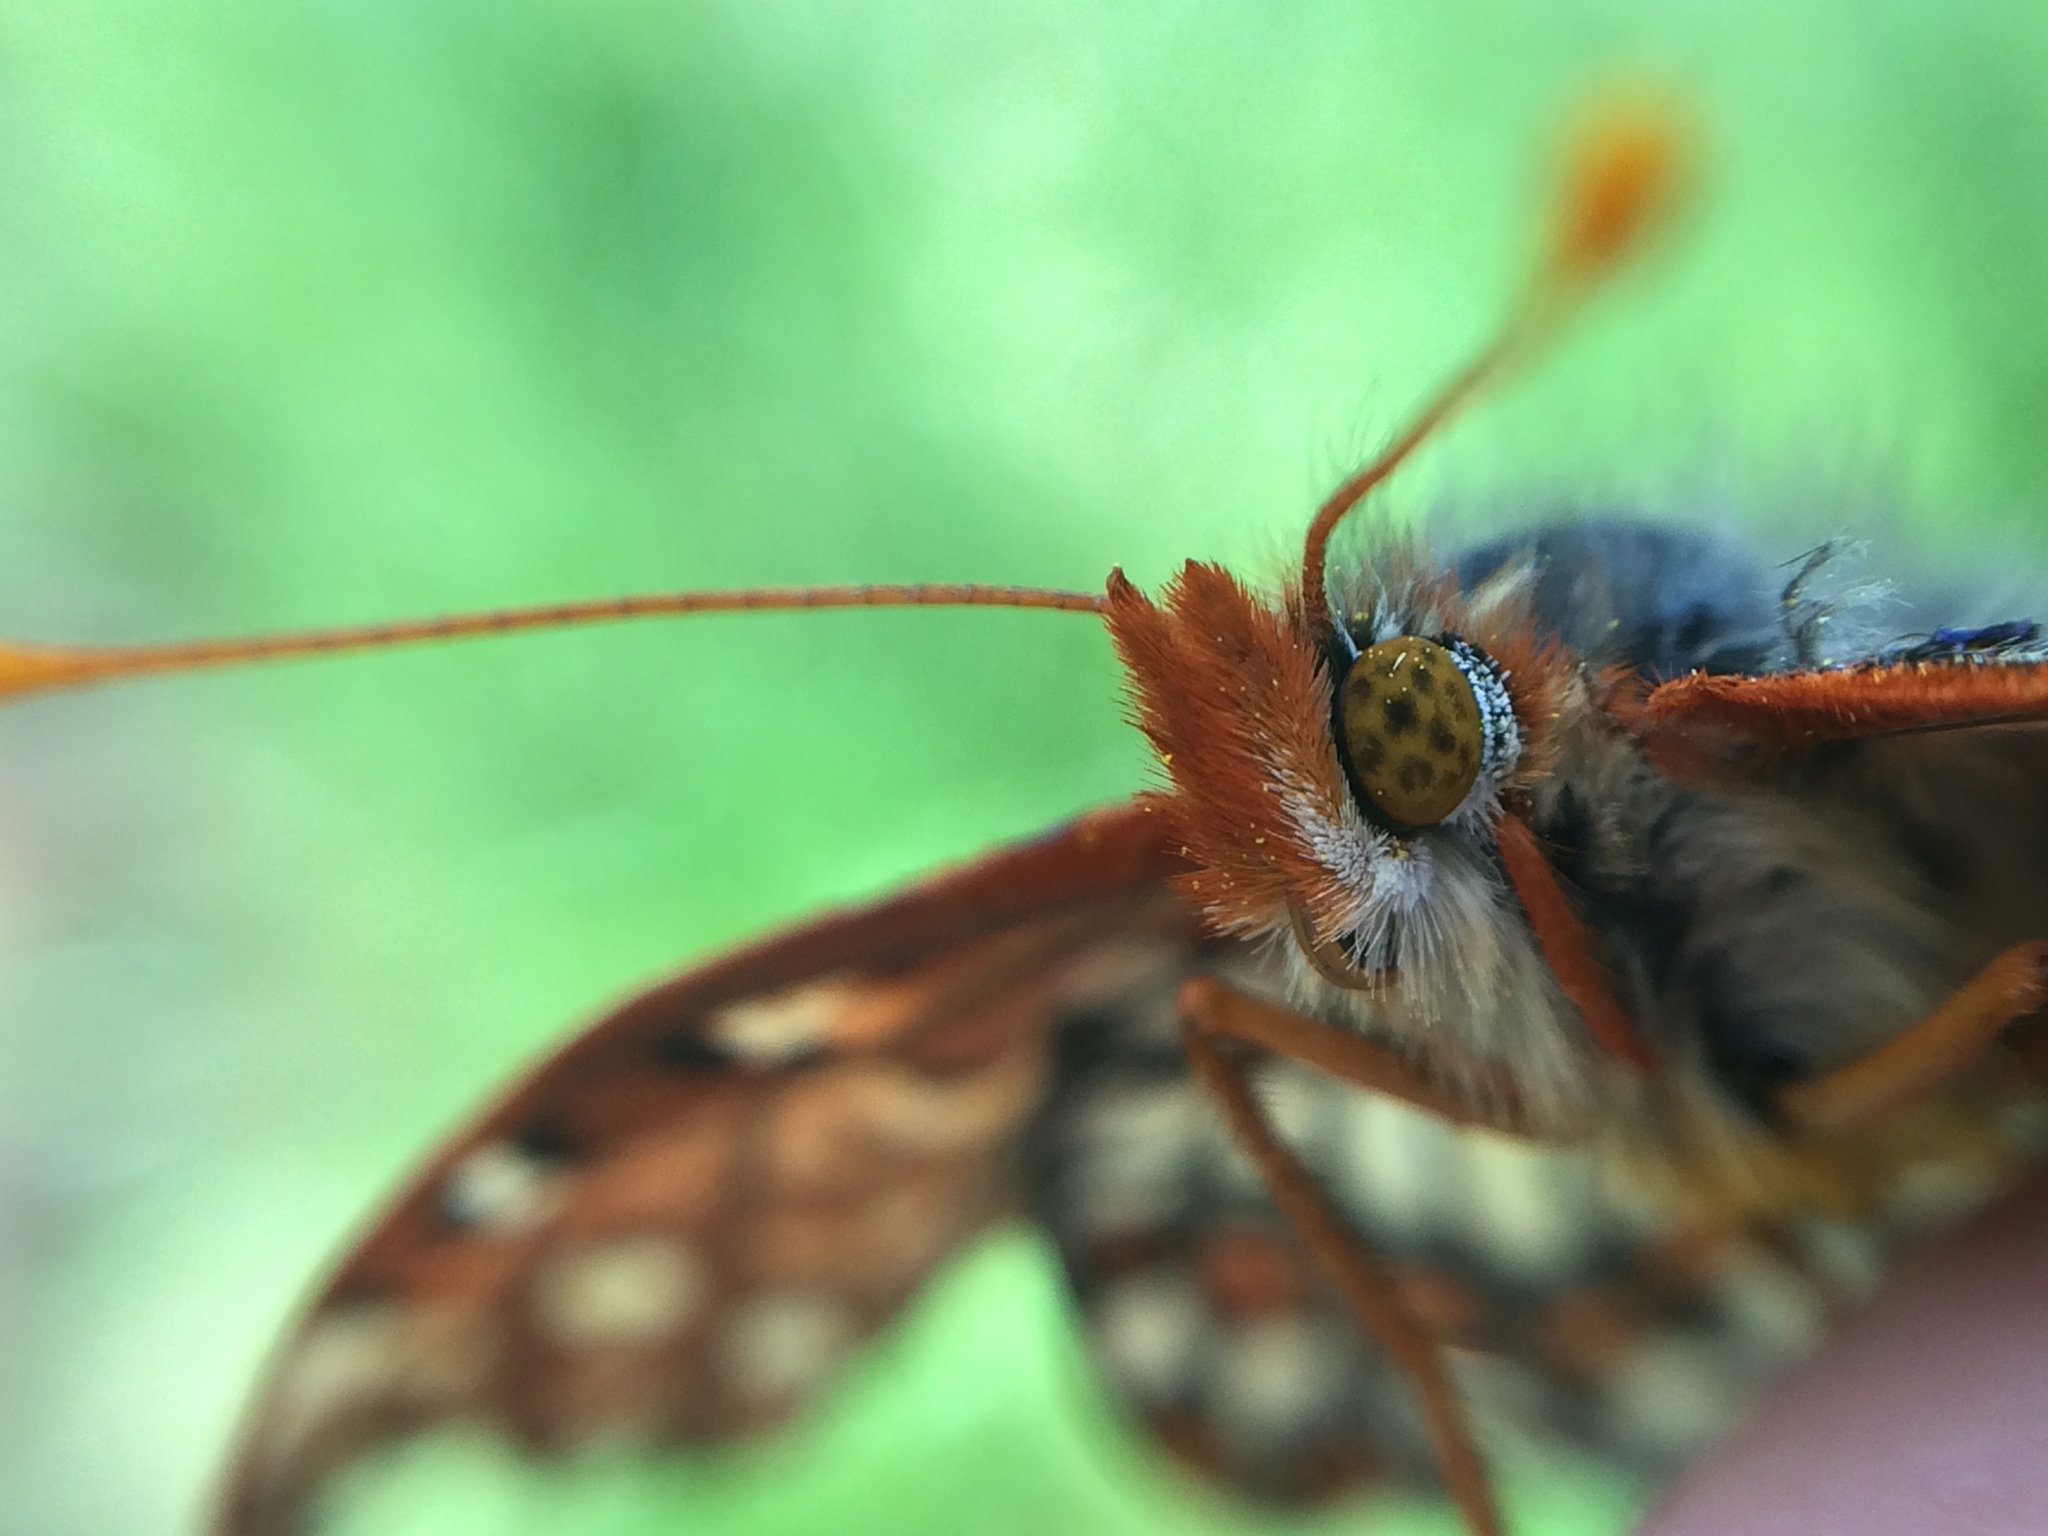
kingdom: Animalia
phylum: Arthropoda
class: Insecta
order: Lepidoptera
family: Nymphalidae
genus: Occidryas
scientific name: Occidryas chalcedona
